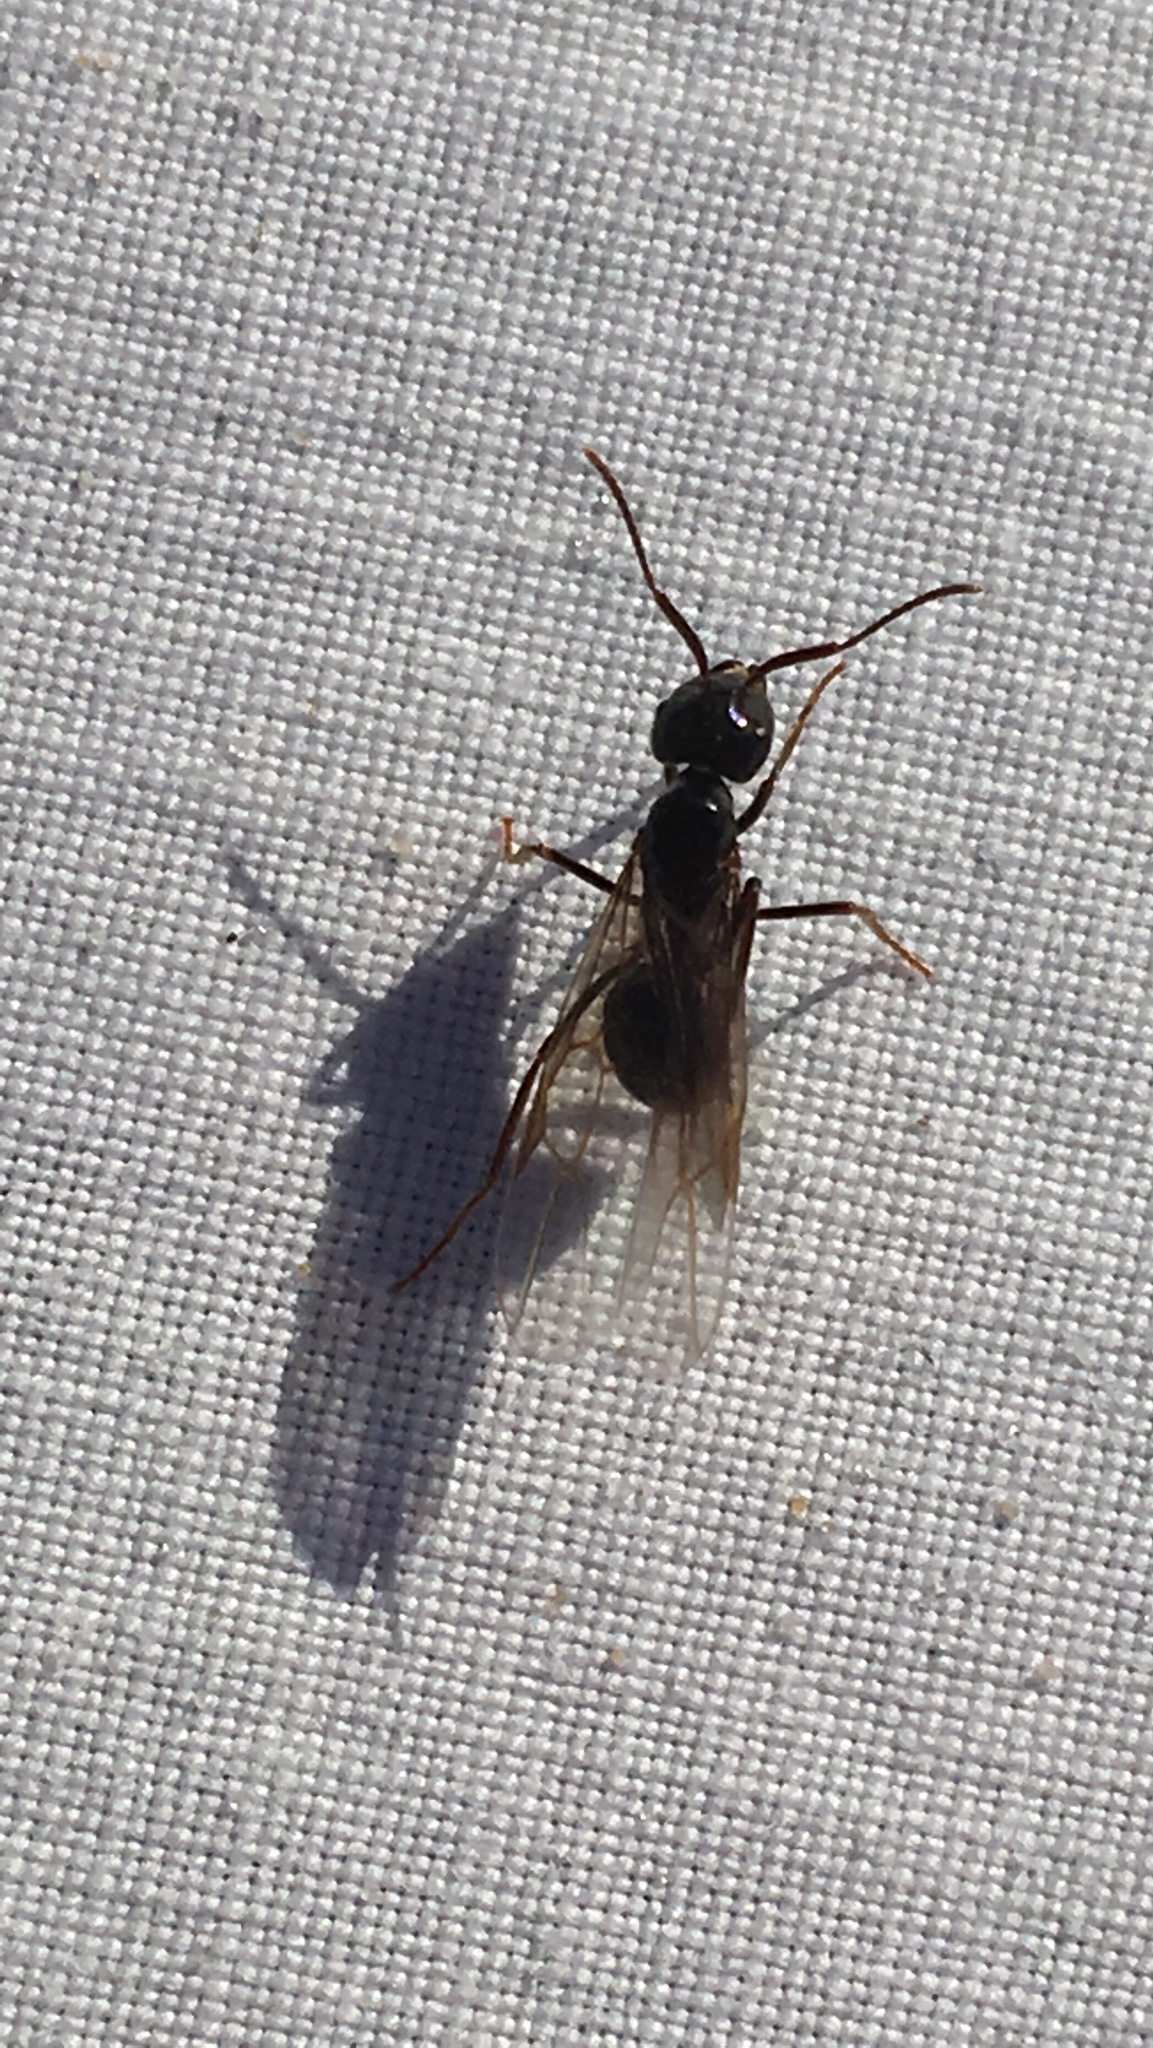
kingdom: Animalia
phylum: Arthropoda
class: Insecta
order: Hymenoptera
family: Formicidae
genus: Lasius
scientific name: Lasius fuliginosus
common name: Jet ant
